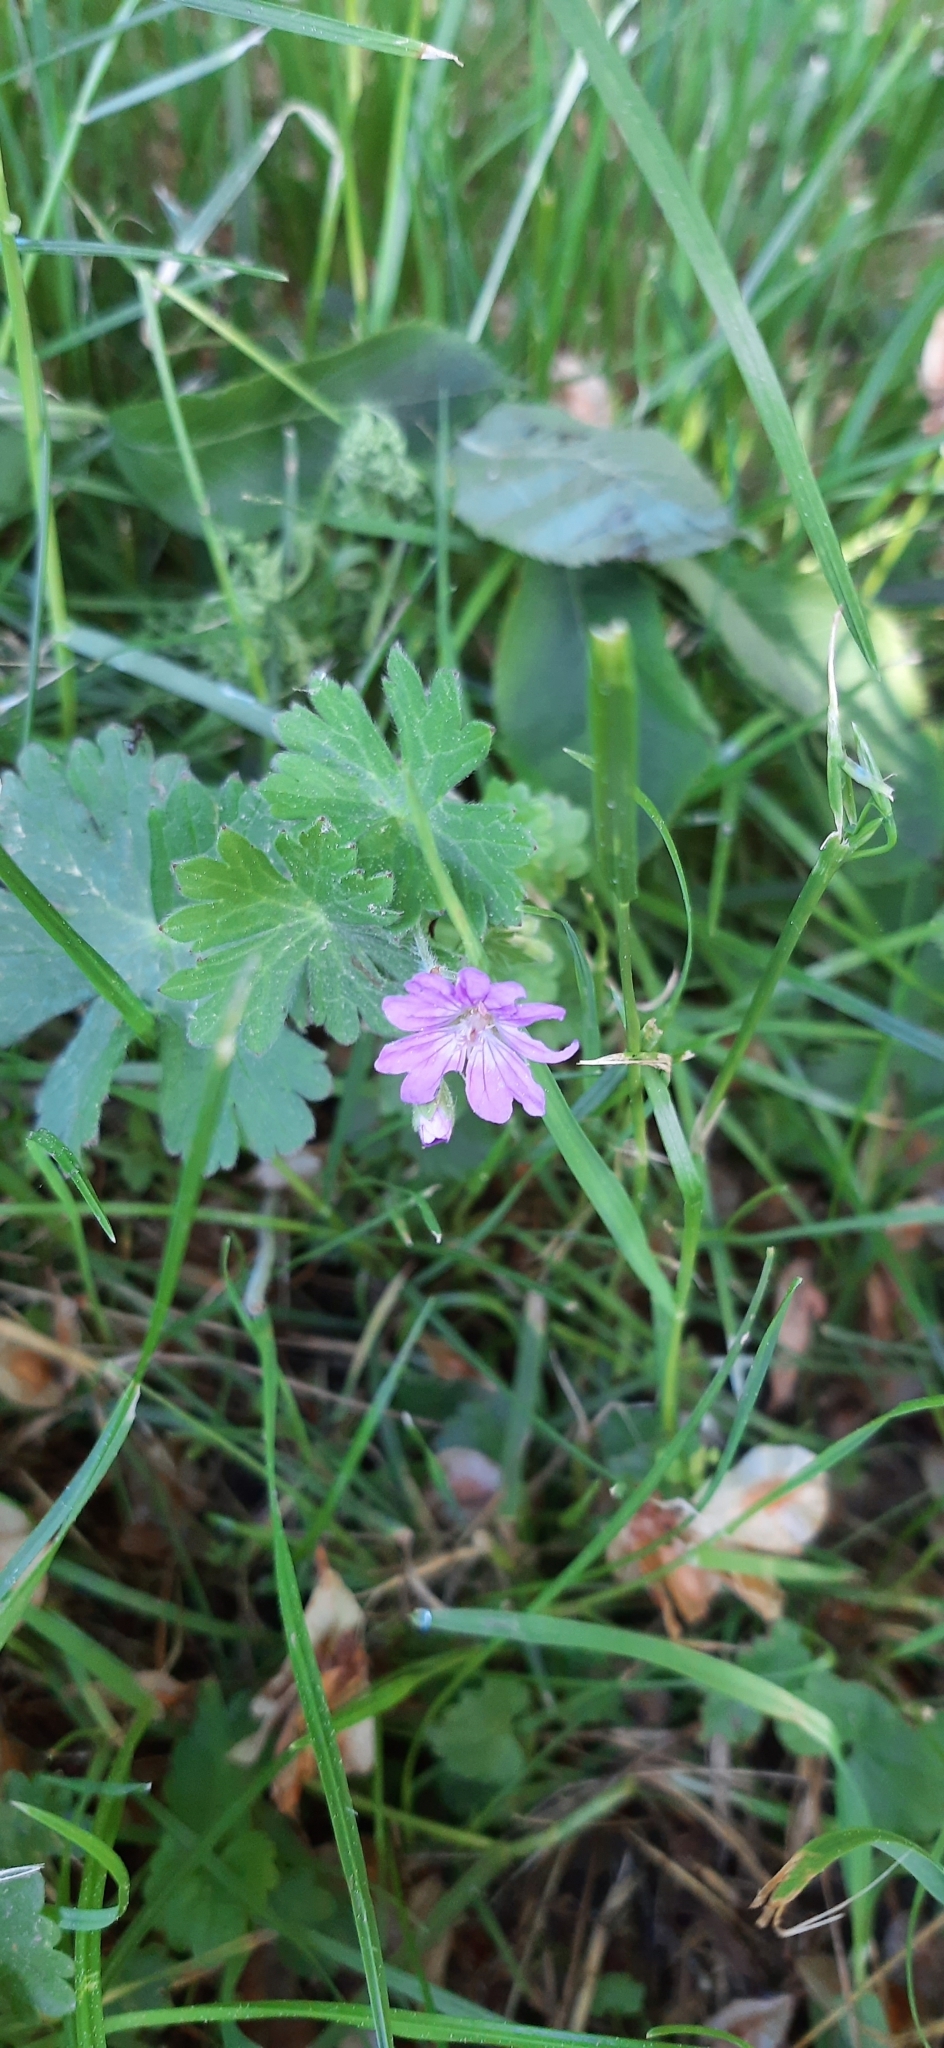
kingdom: Plantae
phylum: Tracheophyta
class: Magnoliopsida
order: Geraniales
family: Geraniaceae
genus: Geranium
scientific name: Geranium pyrenaicum
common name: Hedgerow crane's-bill
